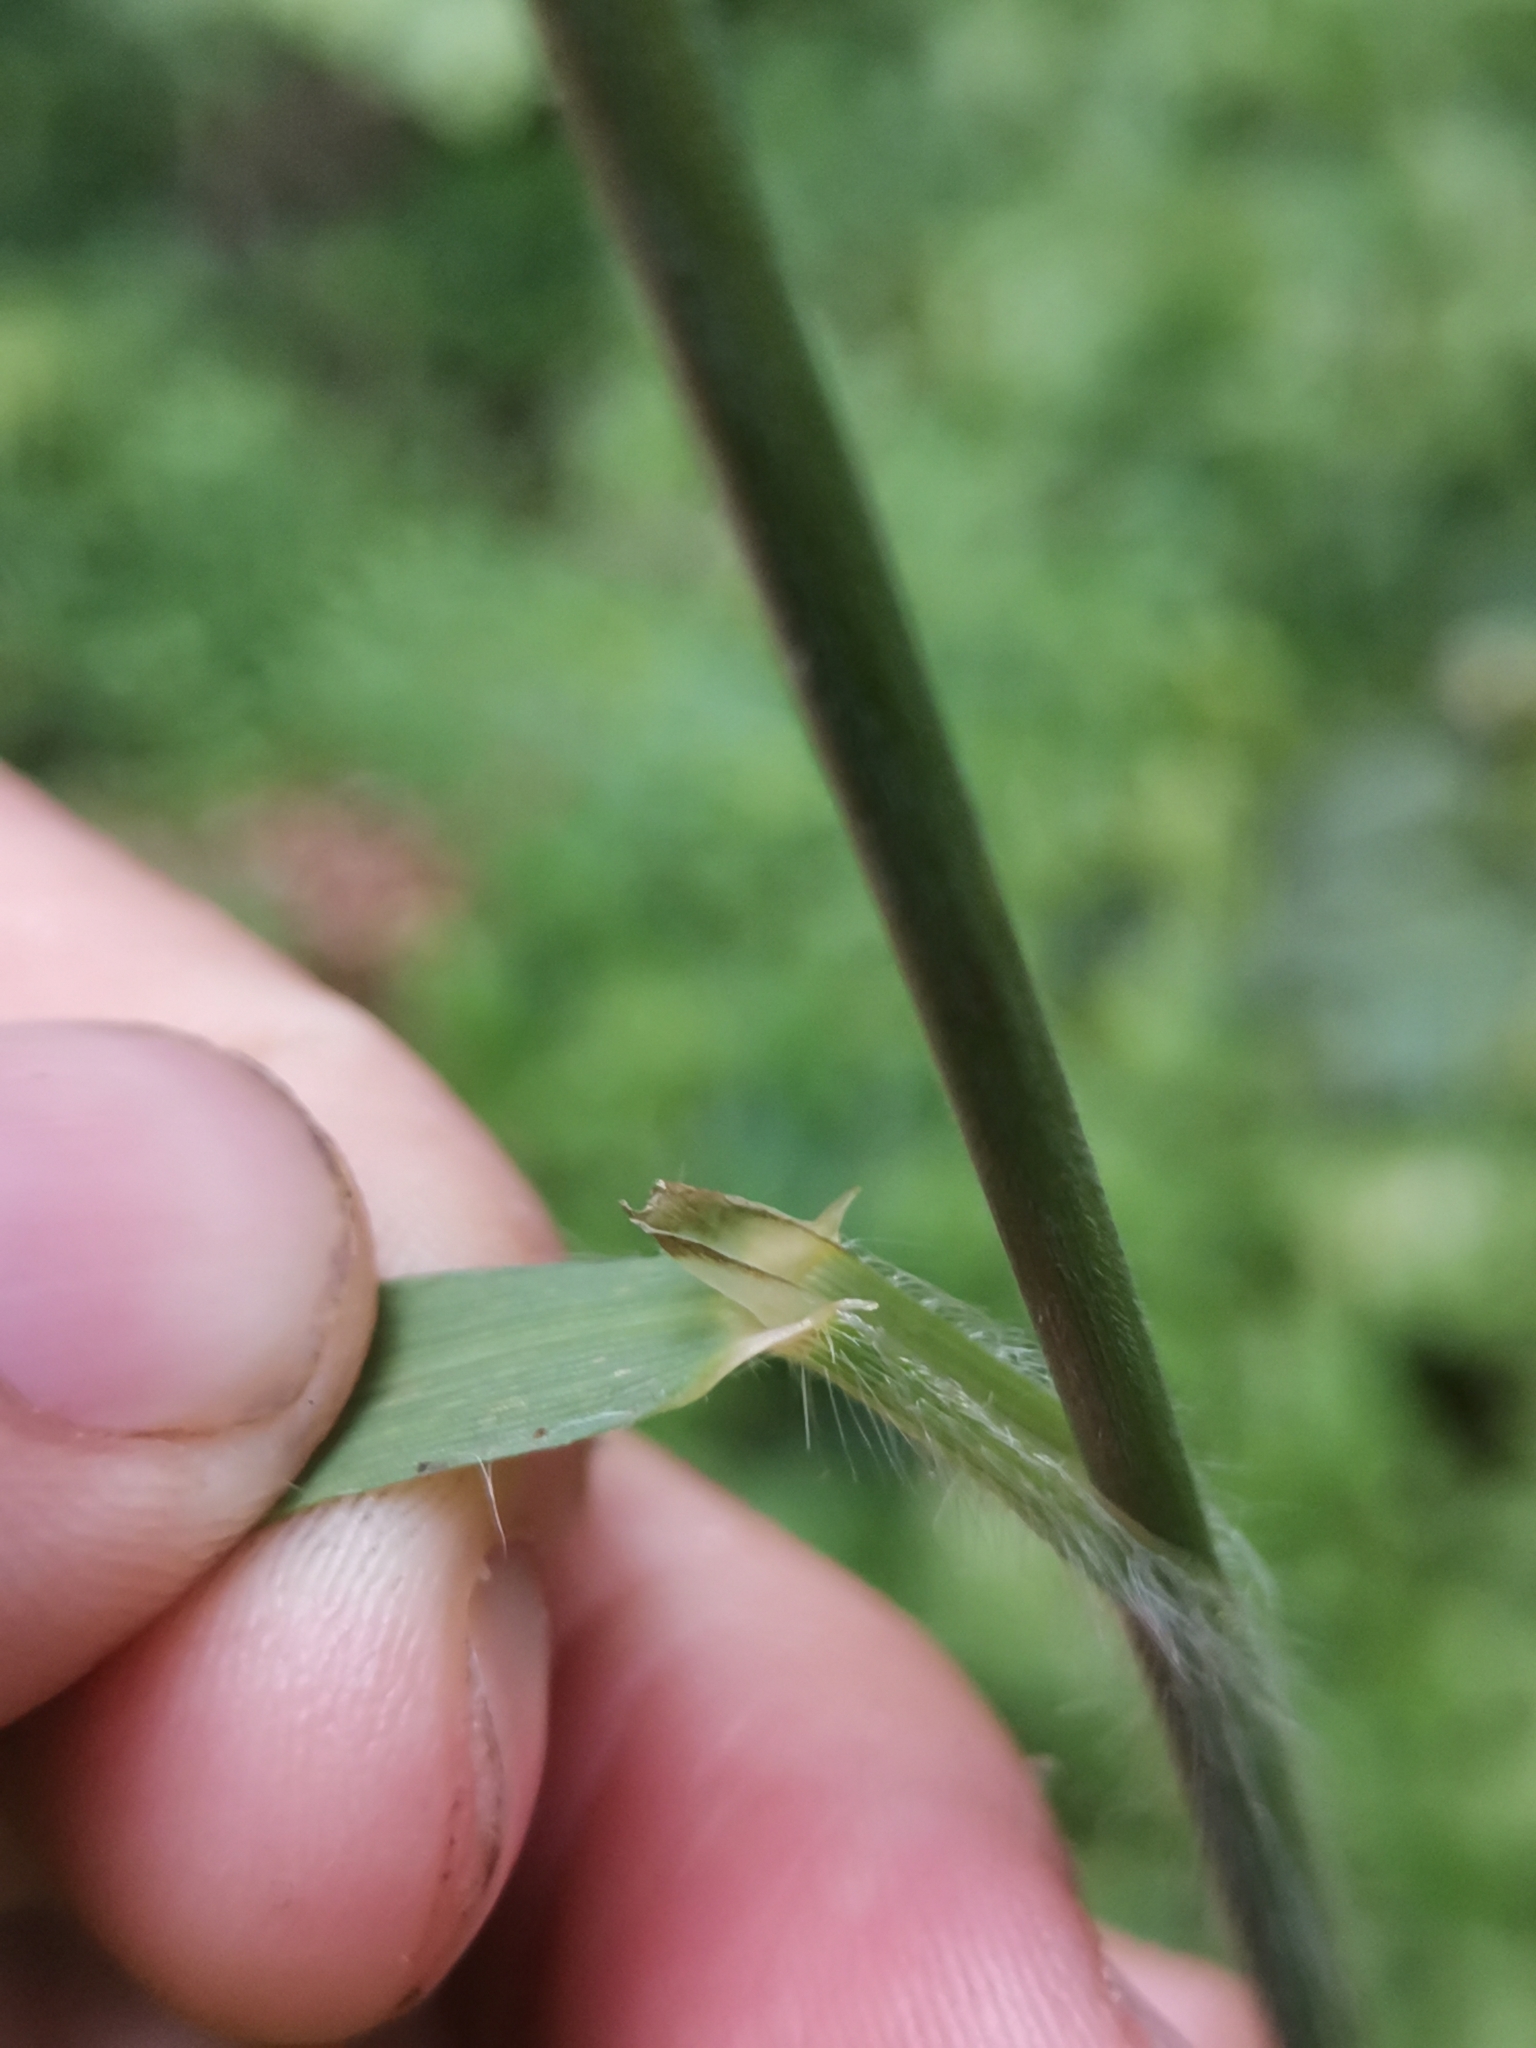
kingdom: Plantae
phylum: Tracheophyta
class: Liliopsida
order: Poales
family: Poaceae
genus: Bromus
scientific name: Bromus ramosus
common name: Hairy brome
